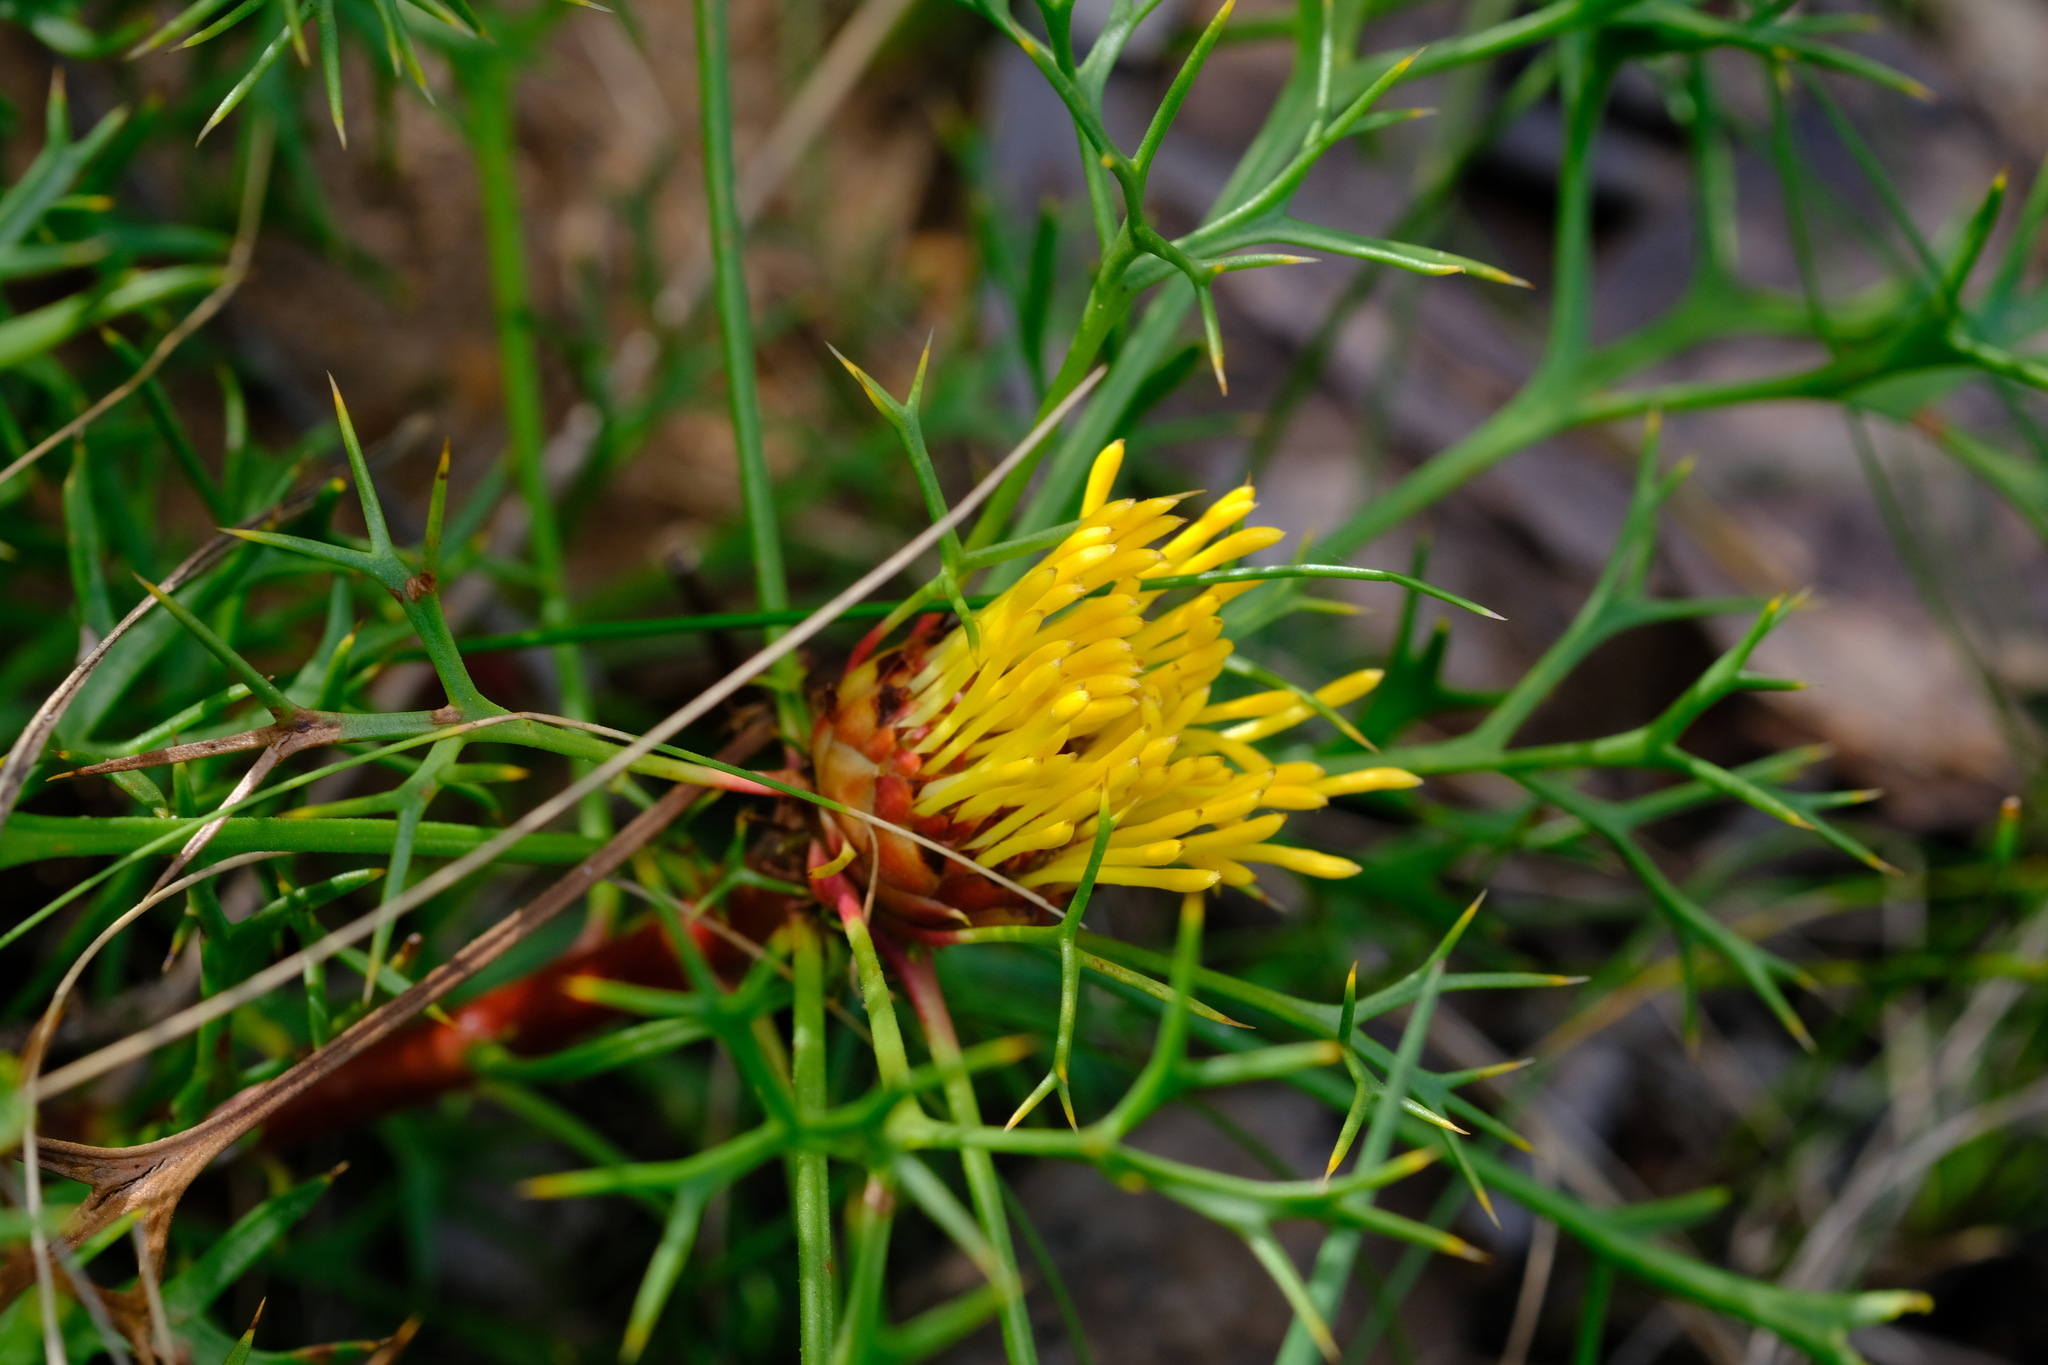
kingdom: Plantae
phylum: Tracheophyta
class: Magnoliopsida
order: Proteales
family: Proteaceae
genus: Isopogon
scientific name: Isopogon ceratophyllus
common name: Horny cone-bush
